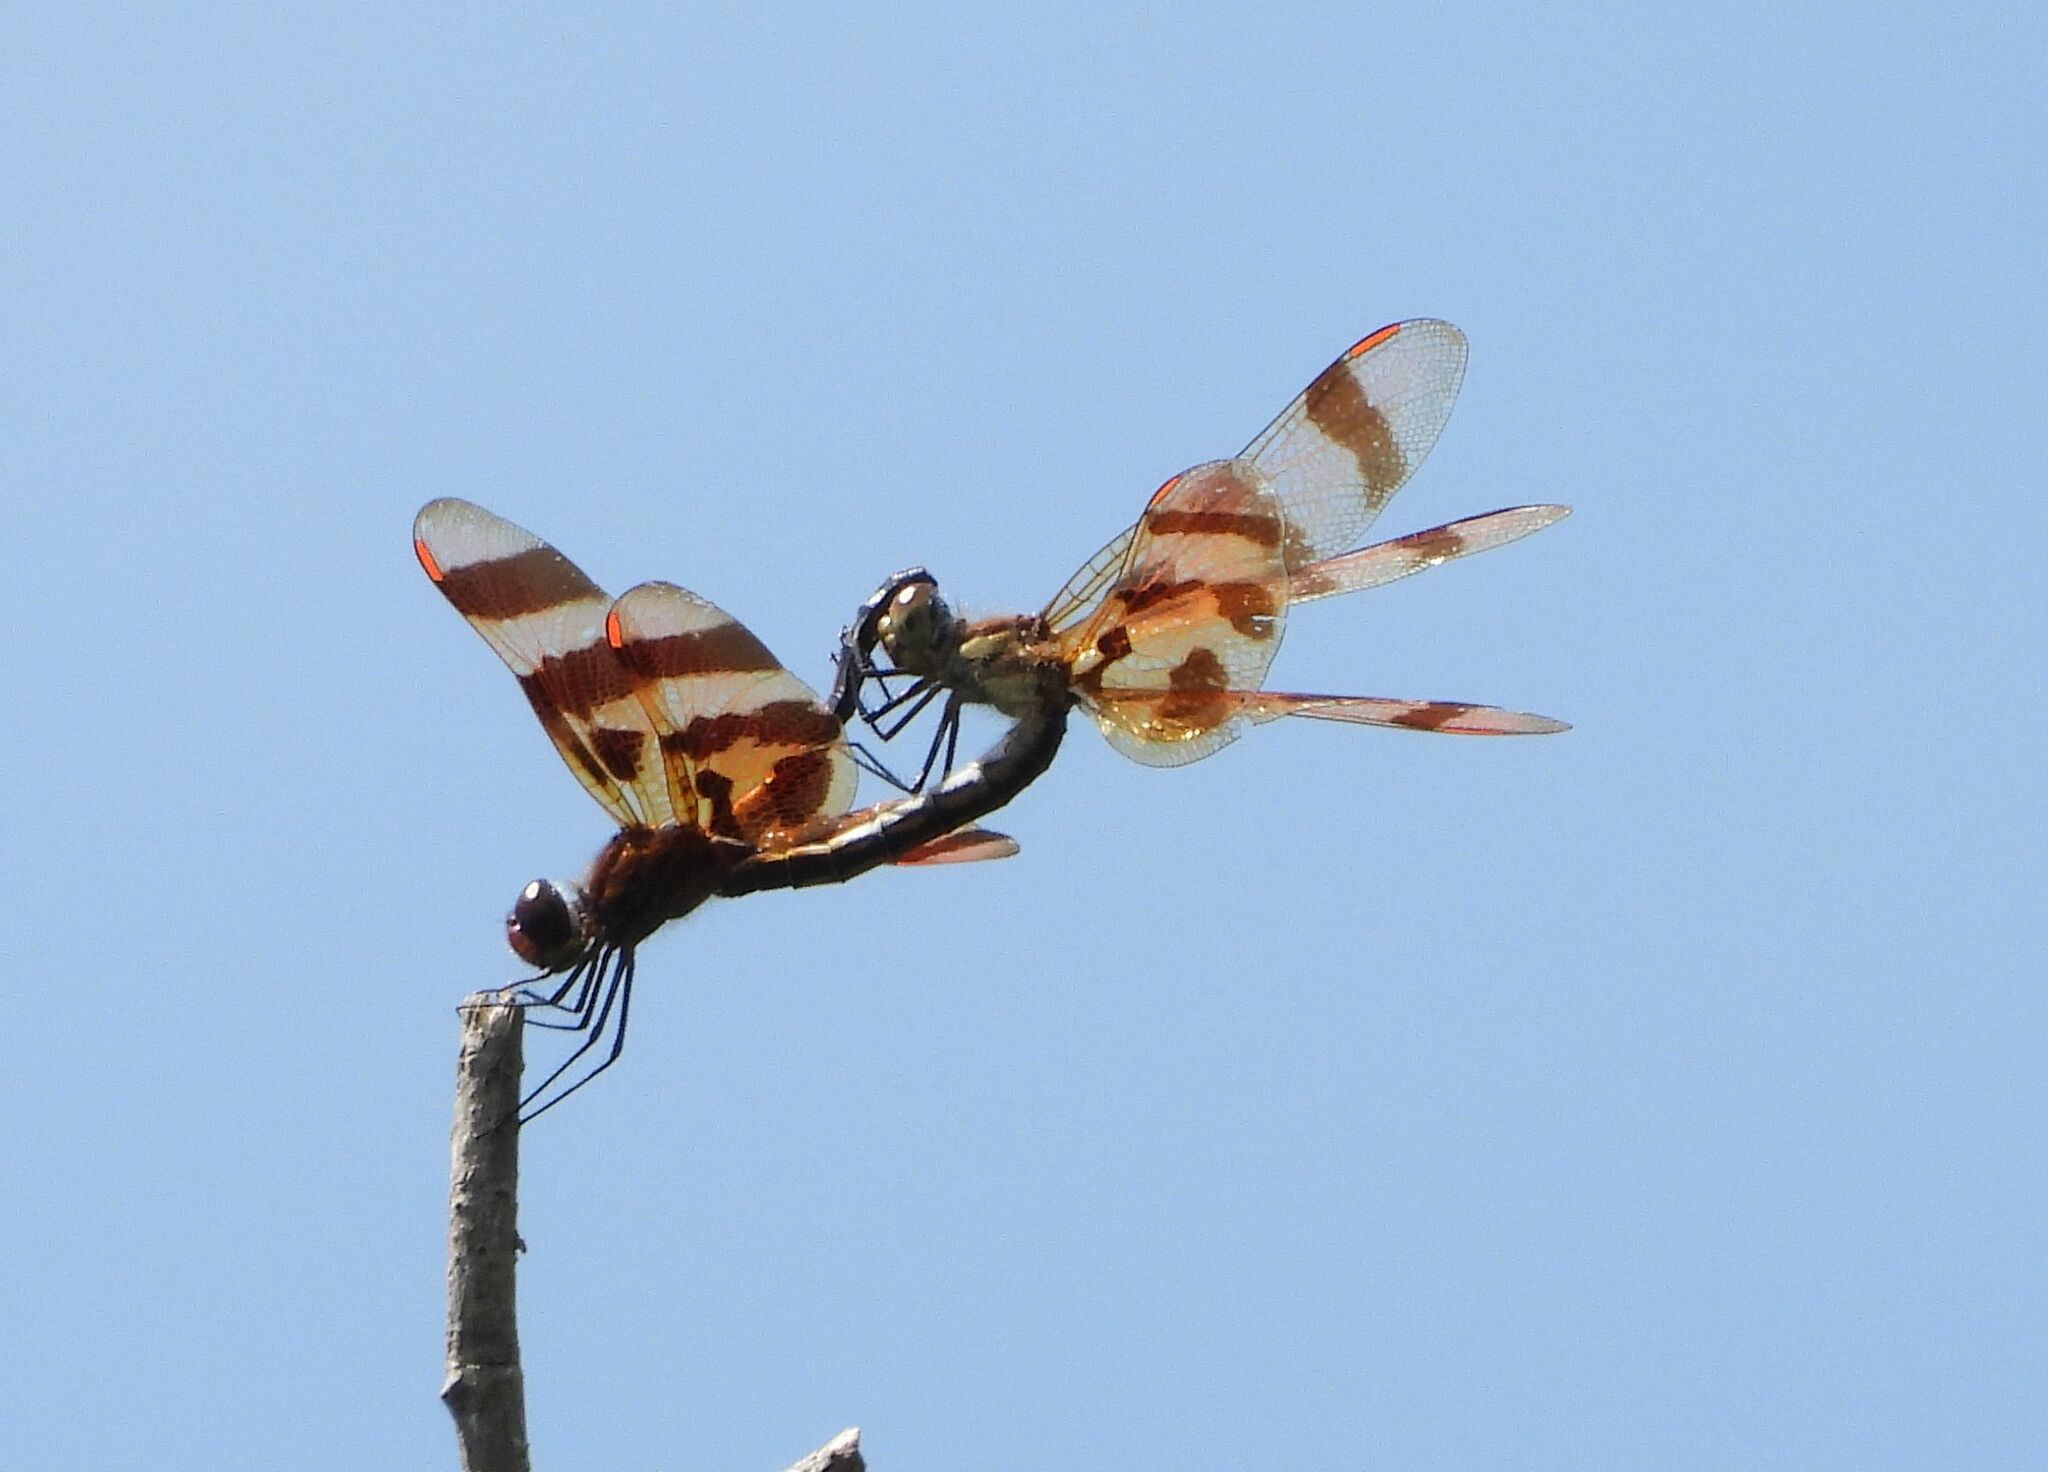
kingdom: Animalia
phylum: Arthropoda
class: Insecta
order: Odonata
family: Libellulidae
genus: Celithemis
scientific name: Celithemis eponina
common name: Halloween pennant
